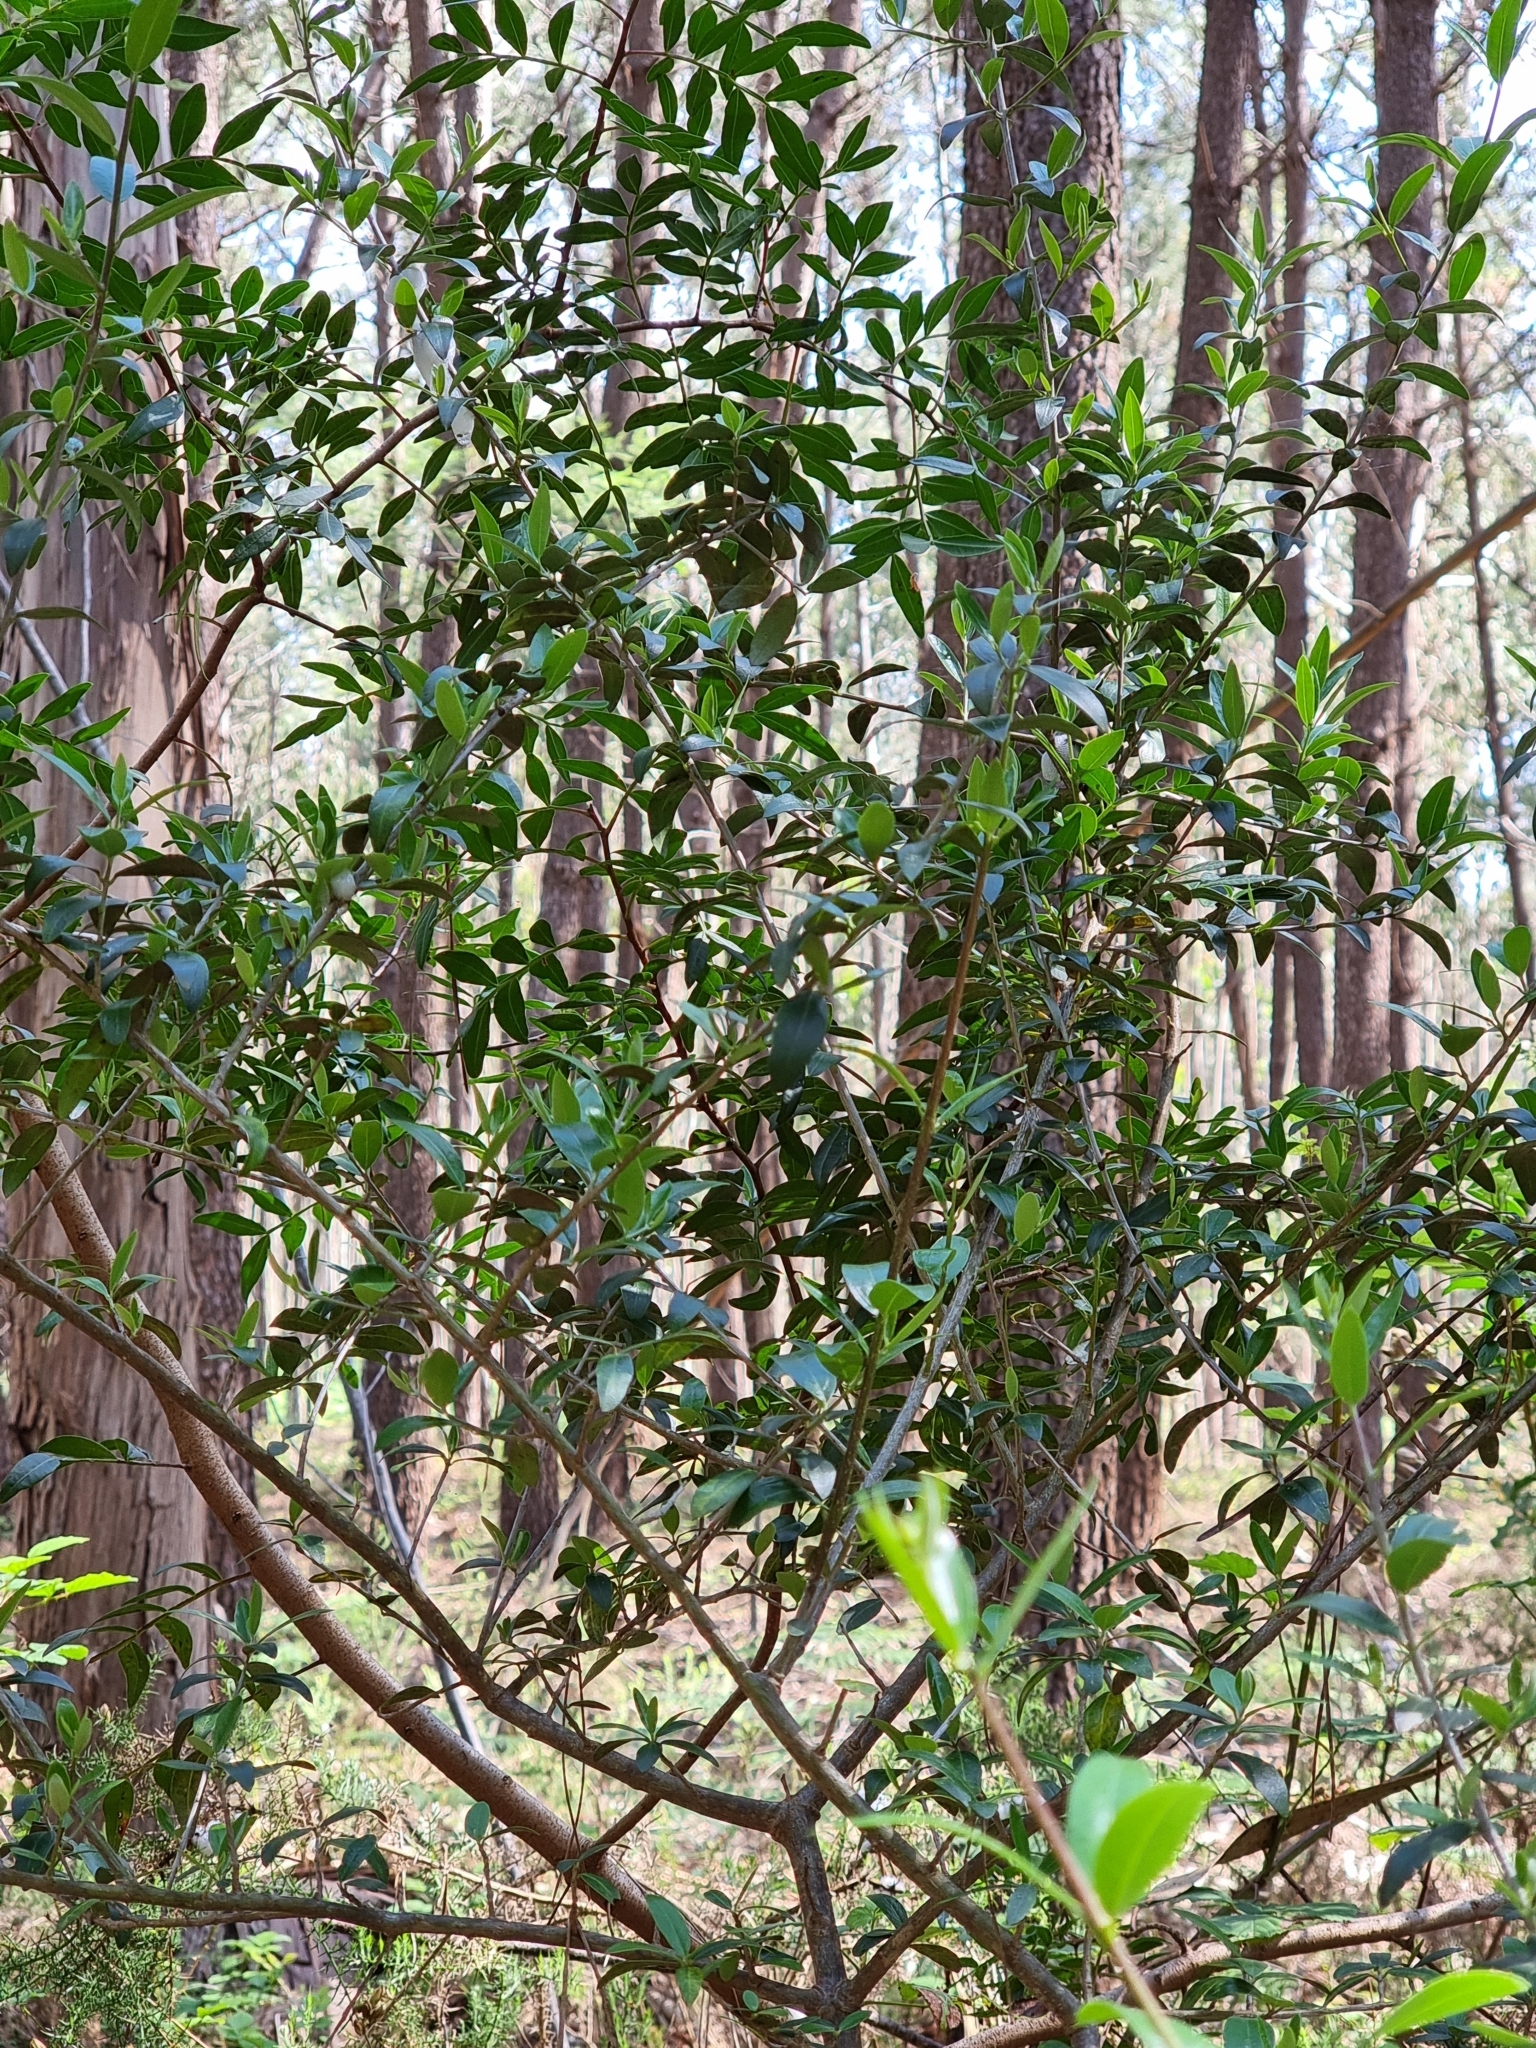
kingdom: Plantae
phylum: Tracheophyta
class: Magnoliopsida
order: Sapindales
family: Anacardiaceae
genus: Pistacia
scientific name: Pistacia lentiscus
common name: Lentisk
